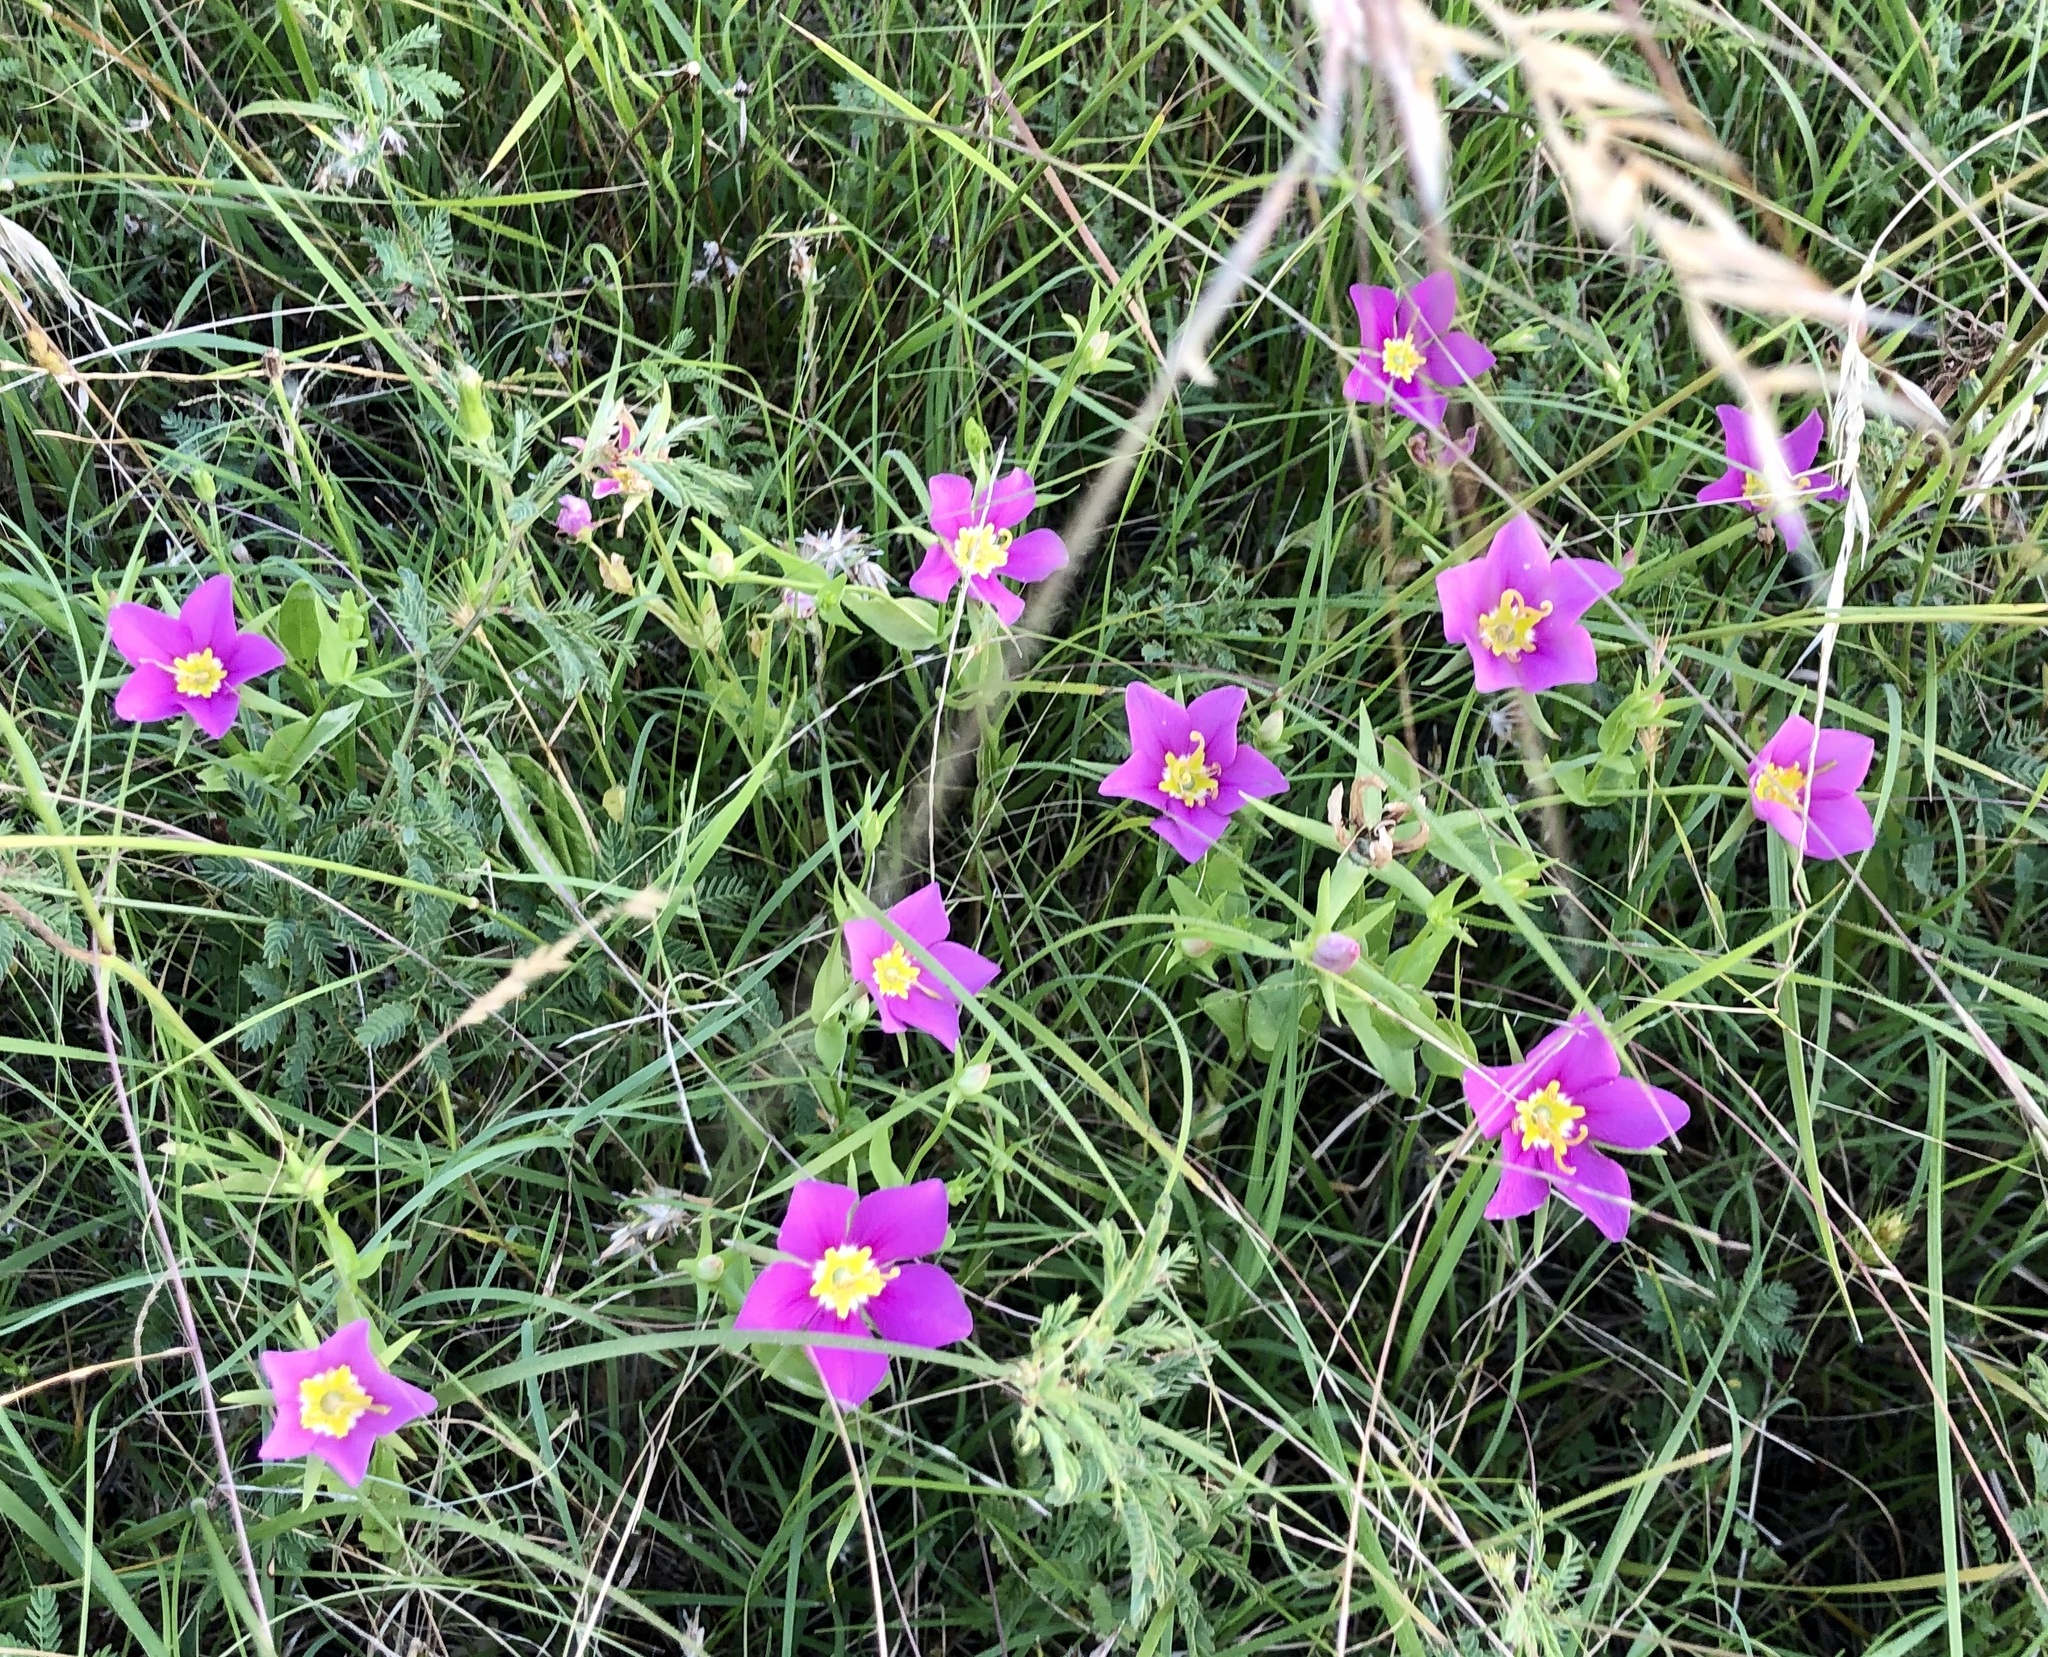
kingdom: Plantae
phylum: Tracheophyta
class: Magnoliopsida
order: Gentianales
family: Gentianaceae
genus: Sabatia
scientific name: Sabatia campestris
